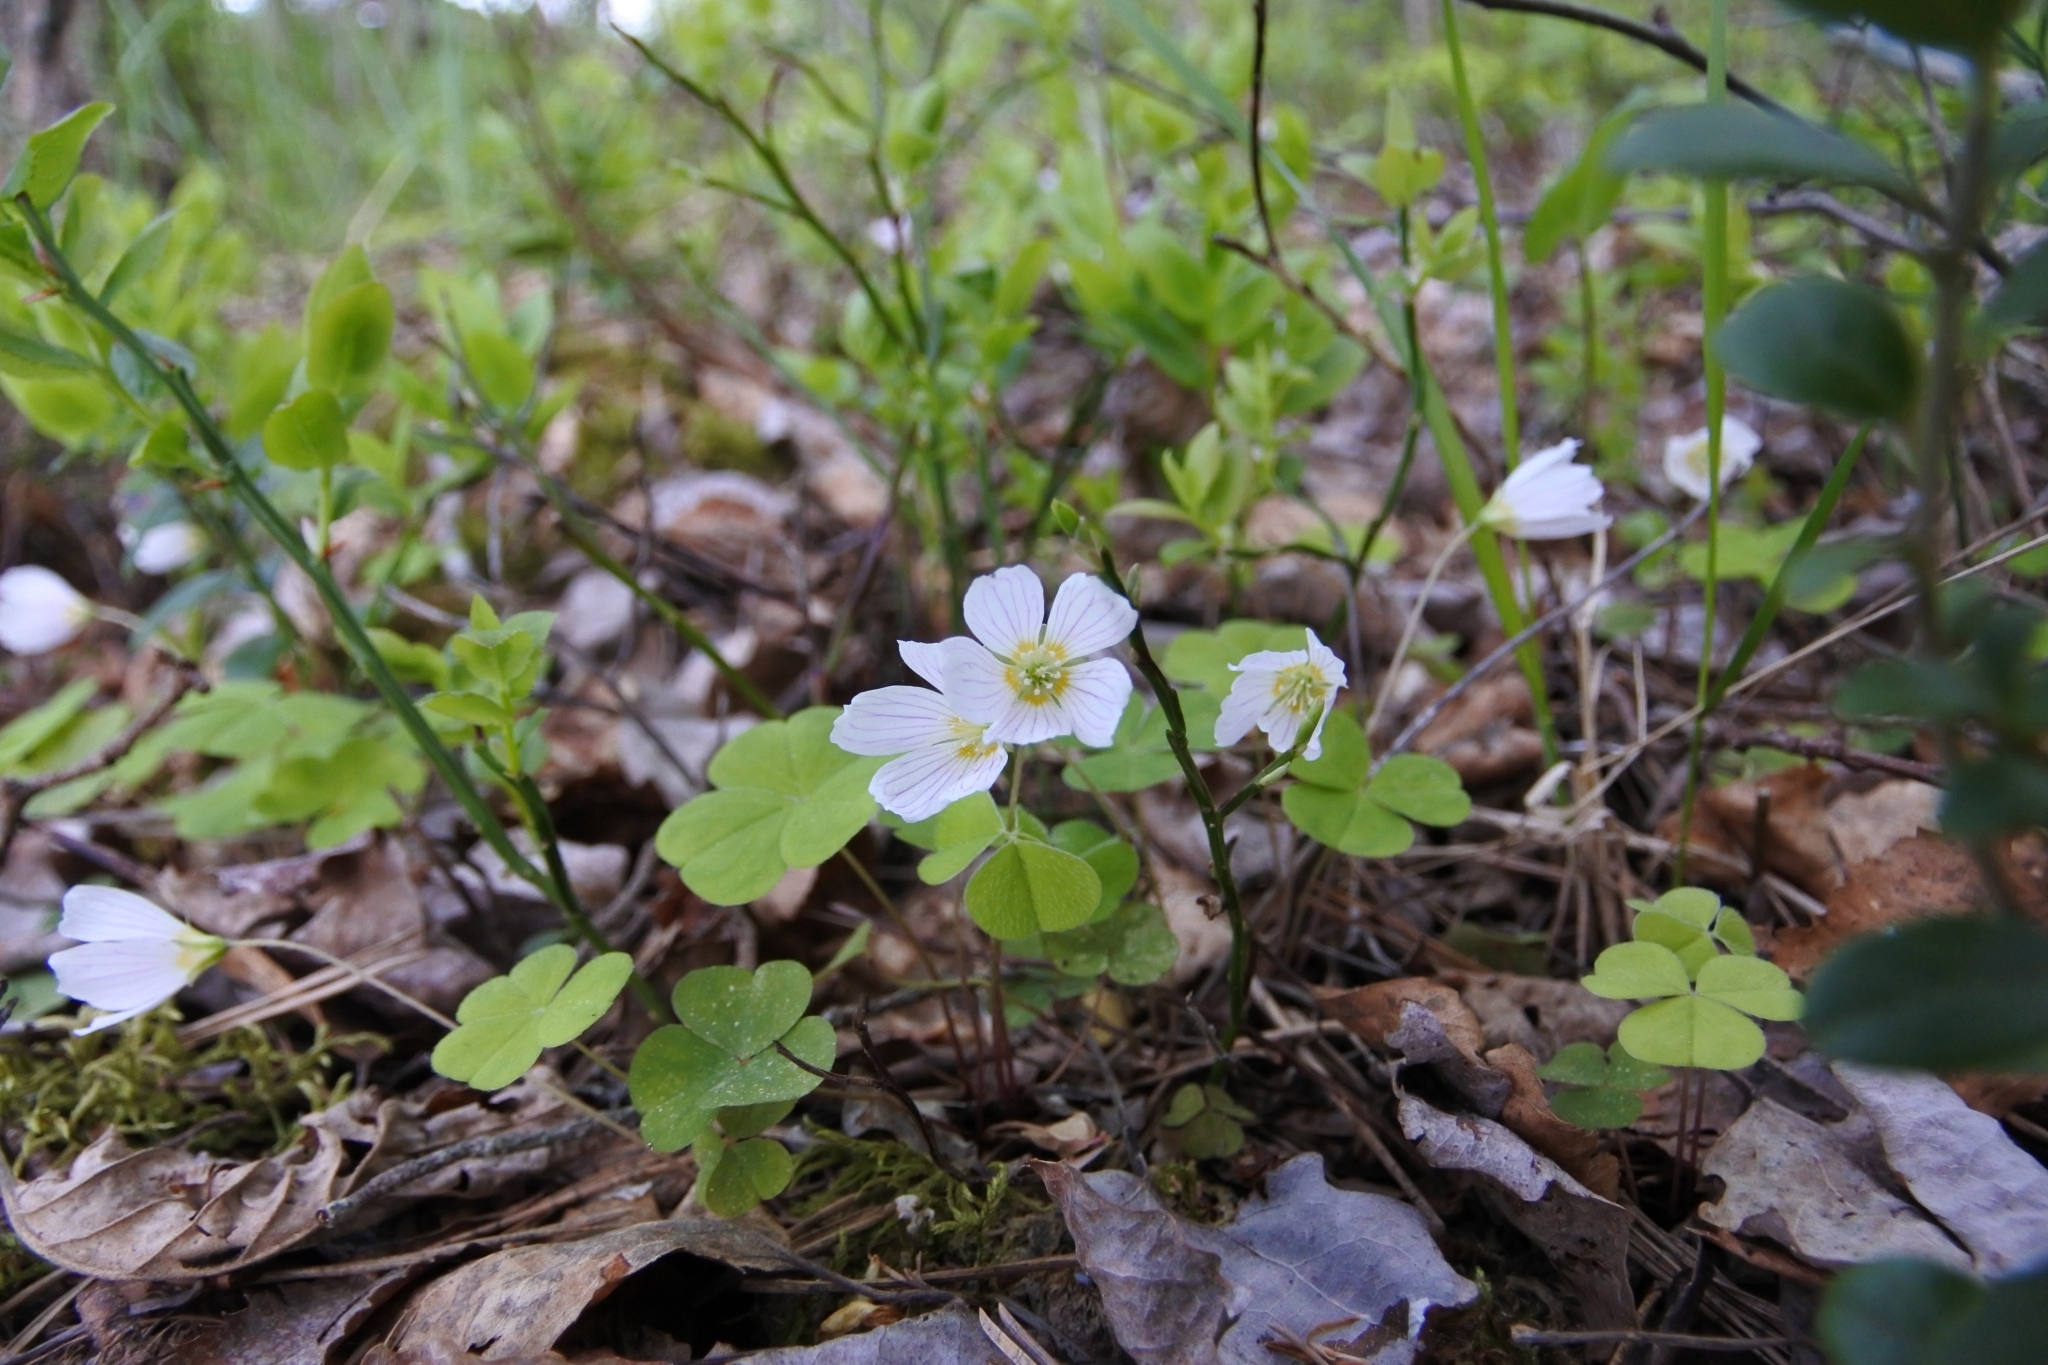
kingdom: Plantae
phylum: Tracheophyta
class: Magnoliopsida
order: Oxalidales
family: Oxalidaceae
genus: Oxalis
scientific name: Oxalis acetosella
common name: Wood-sorrel
